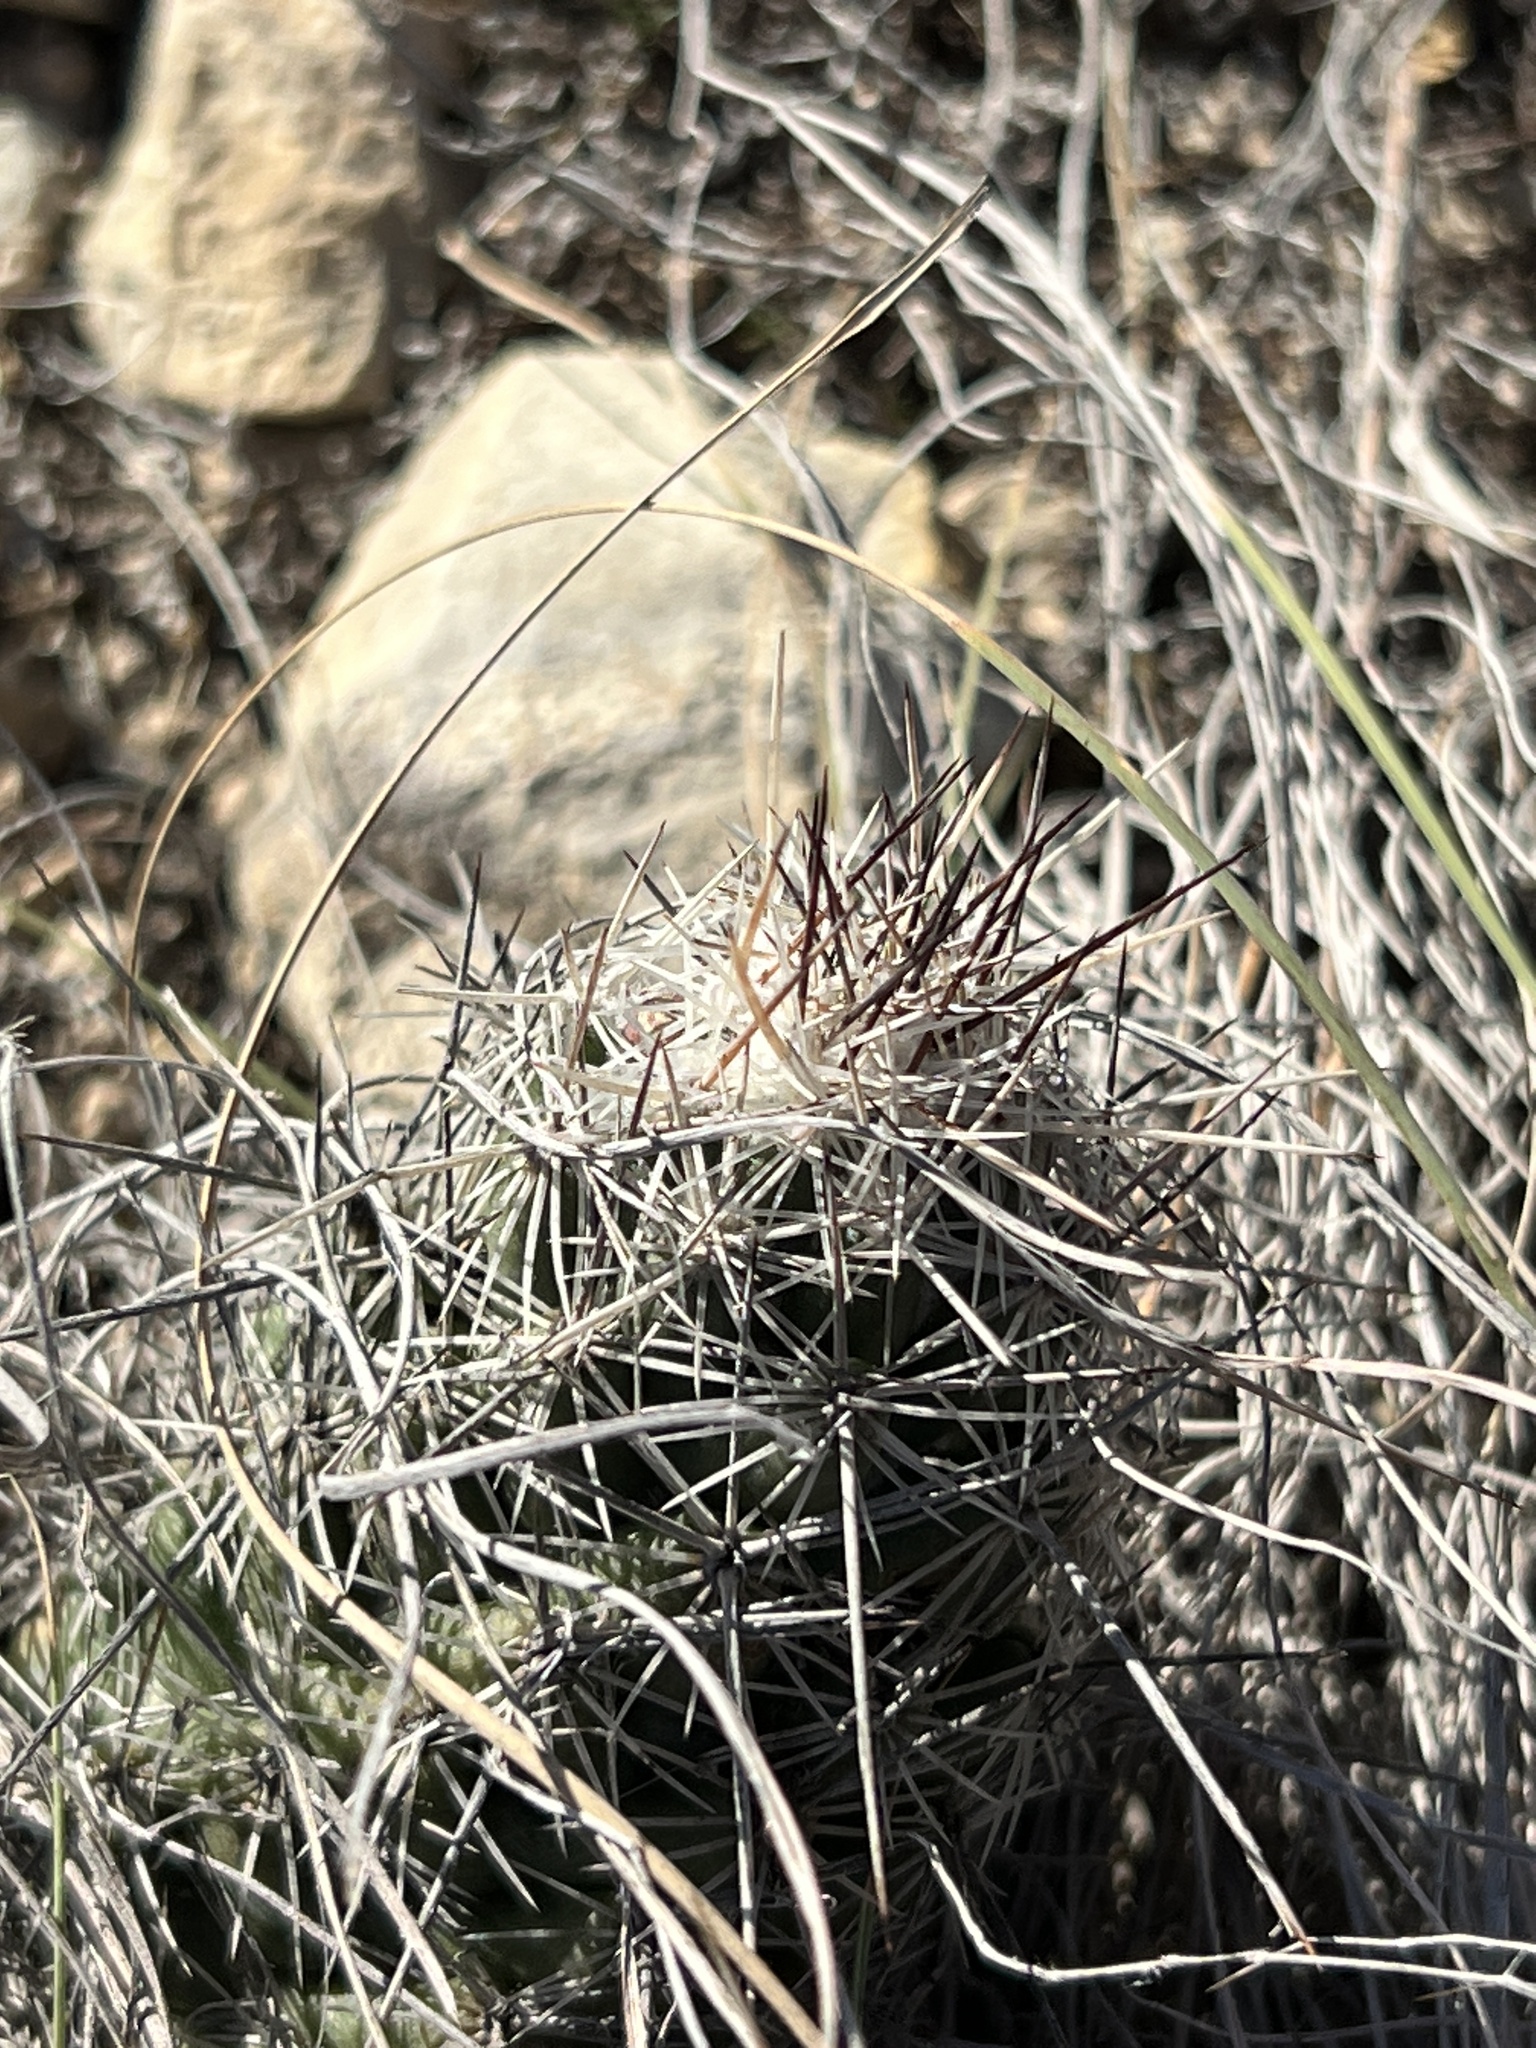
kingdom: Plantae
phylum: Tracheophyta
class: Magnoliopsida
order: Caryophyllales
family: Cactaceae
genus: Cochemiea
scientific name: Cochemiea conoidea
